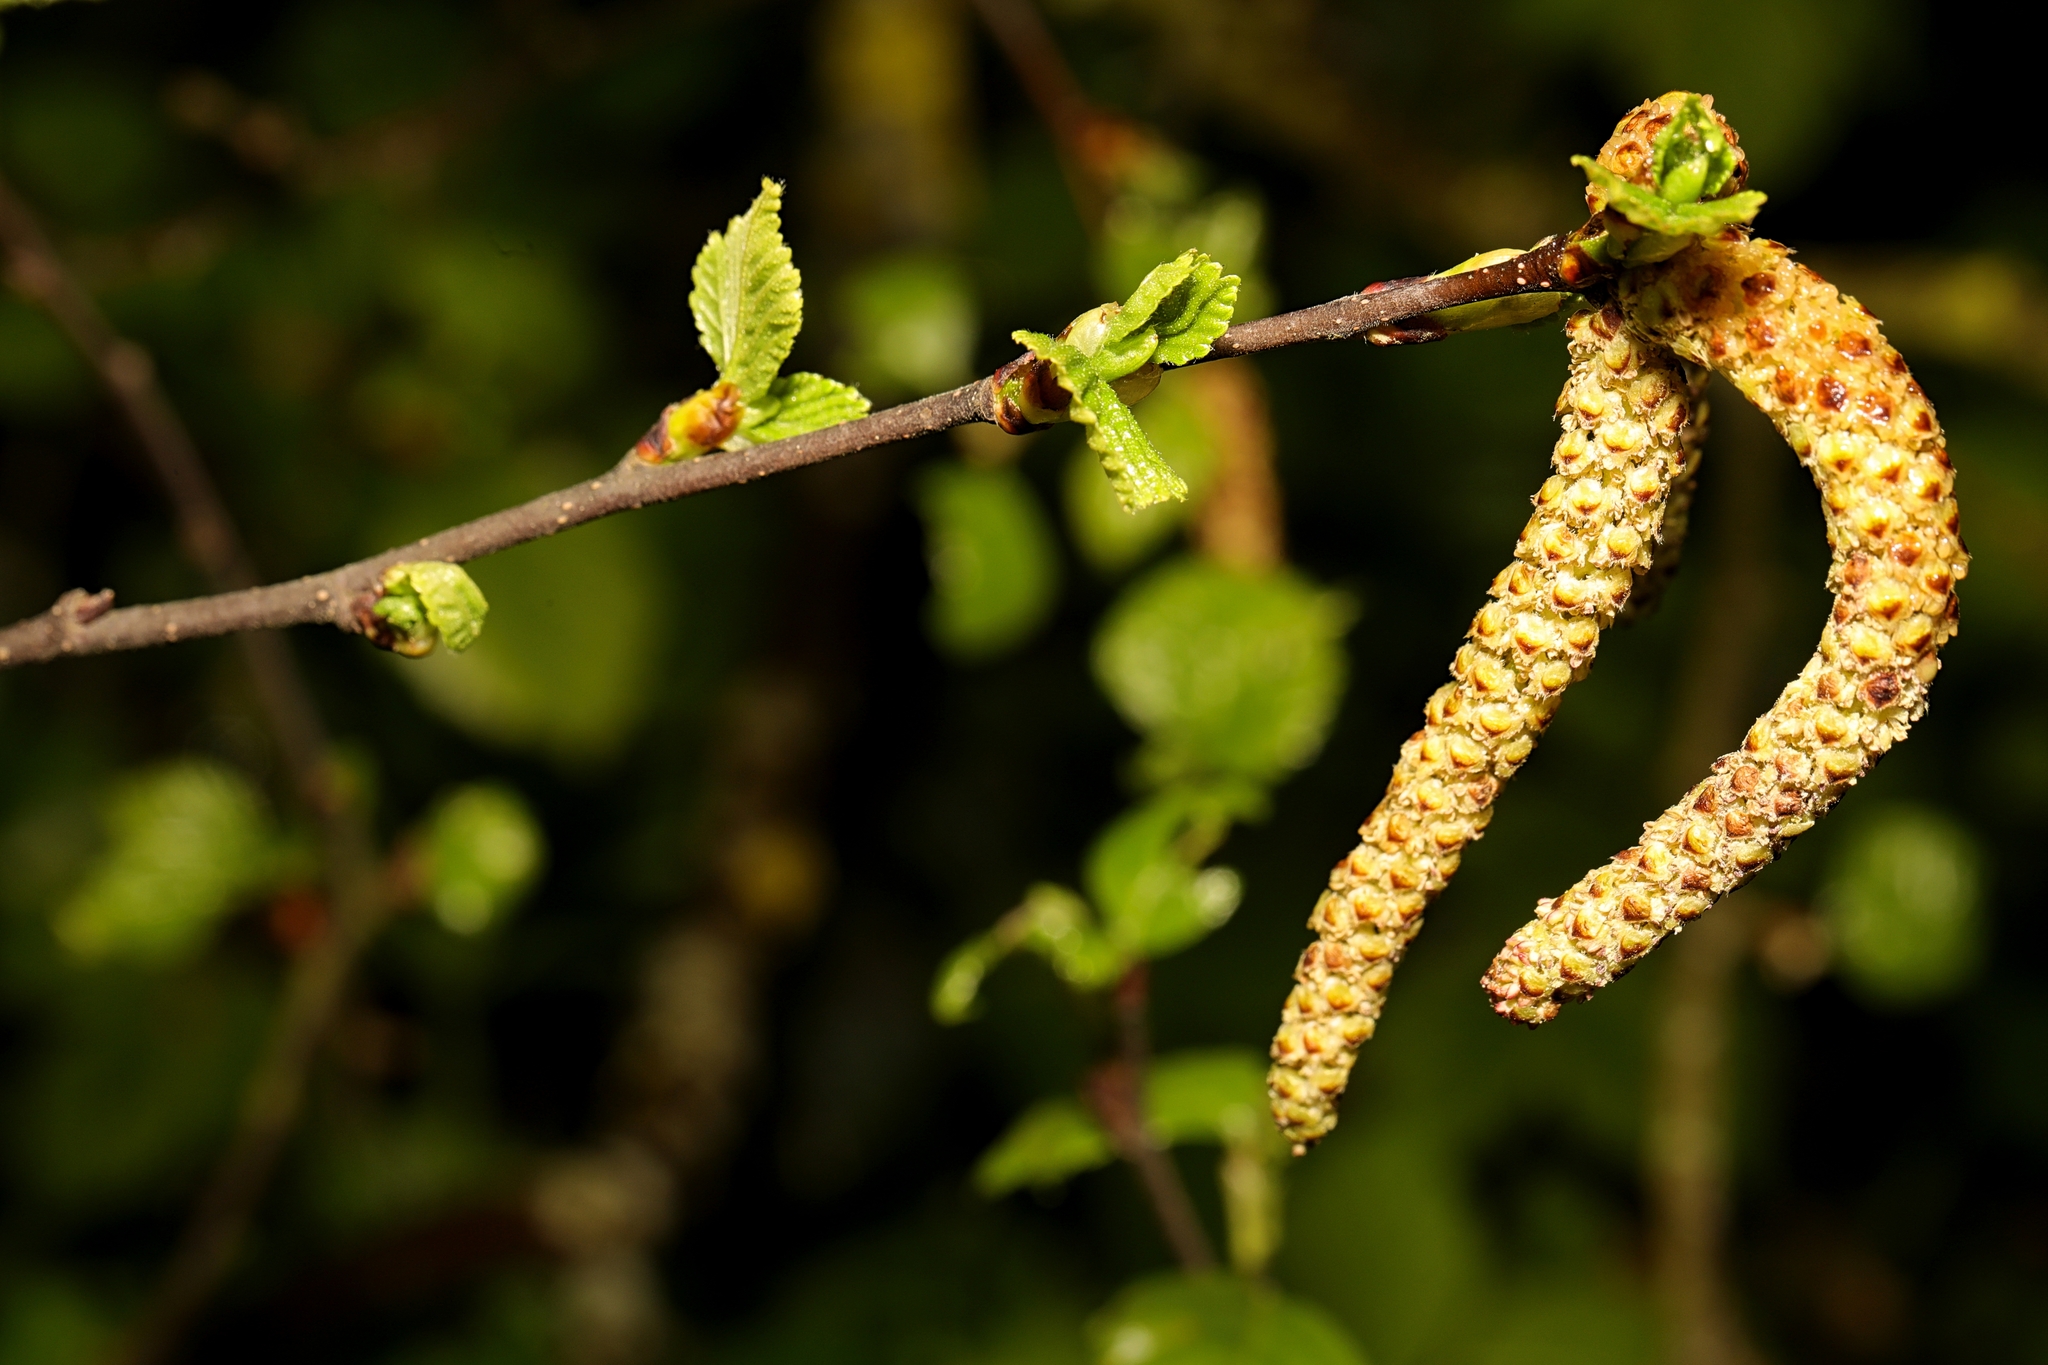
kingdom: Plantae
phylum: Tracheophyta
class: Magnoliopsida
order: Fagales
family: Betulaceae
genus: Betula
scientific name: Betula aurata
